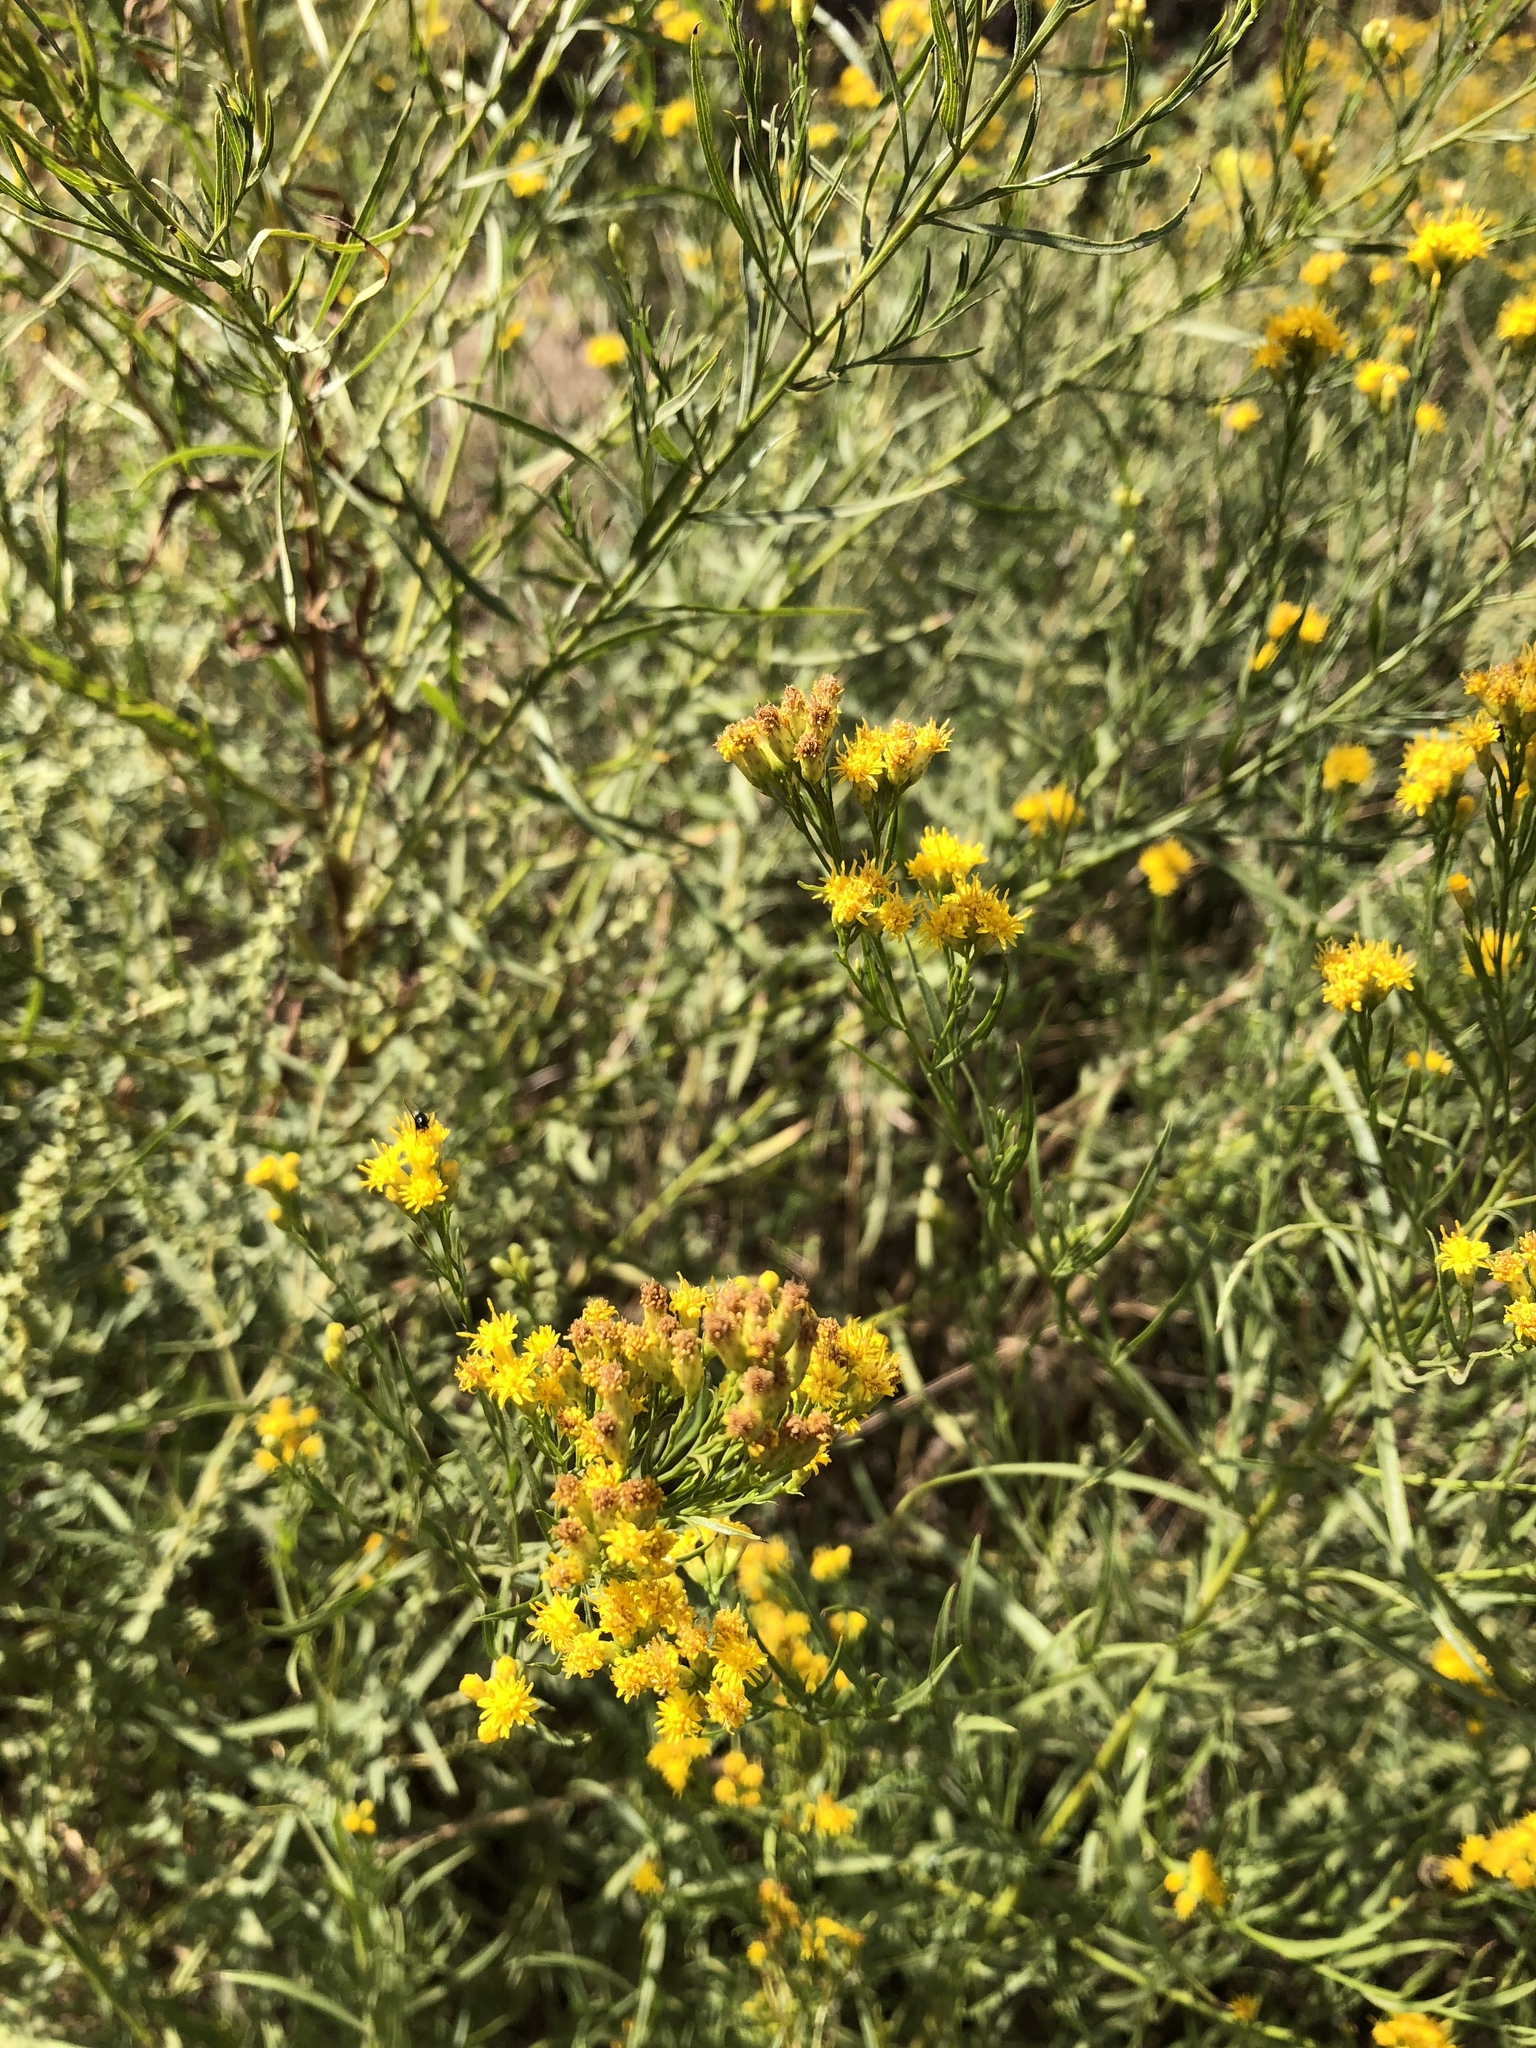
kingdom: Plantae
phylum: Tracheophyta
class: Magnoliopsida
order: Asterales
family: Asteraceae
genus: Gutierrezia
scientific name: Gutierrezia sarothrae
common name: Broom snakeweed
